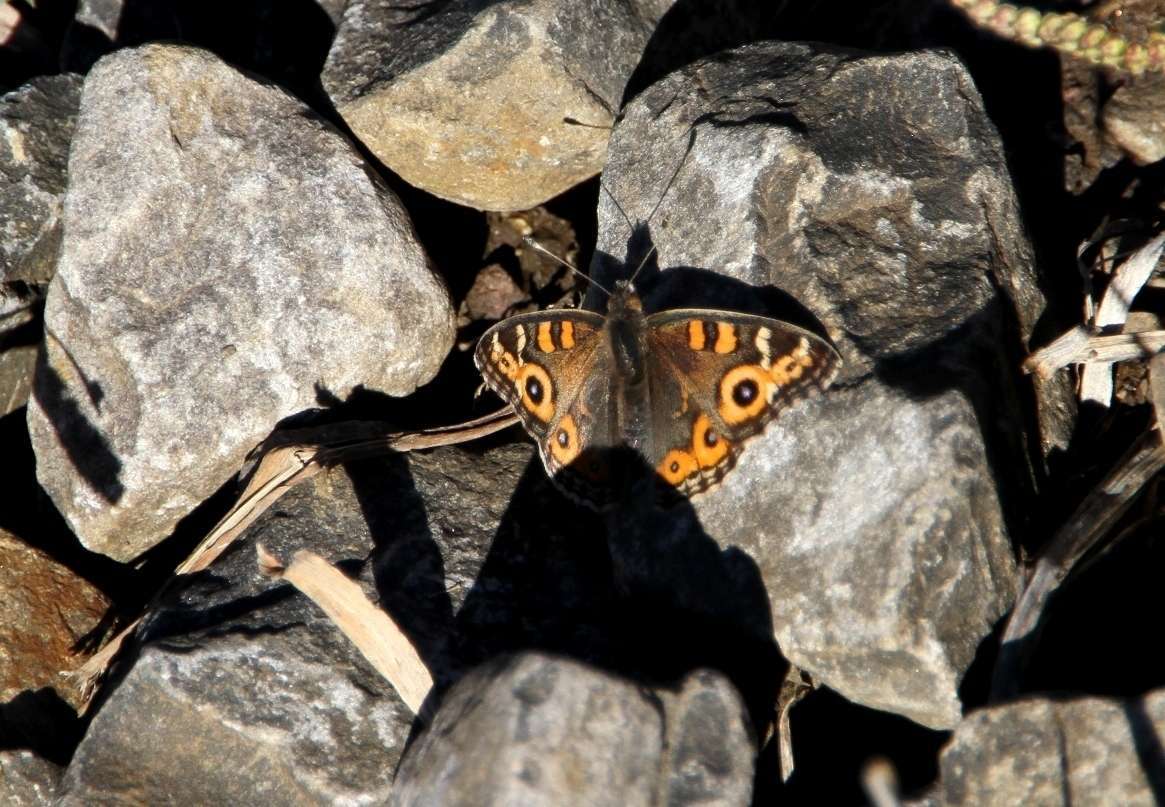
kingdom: Animalia
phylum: Arthropoda
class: Insecta
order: Lepidoptera
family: Nymphalidae
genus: Junonia
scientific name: Junonia villida
